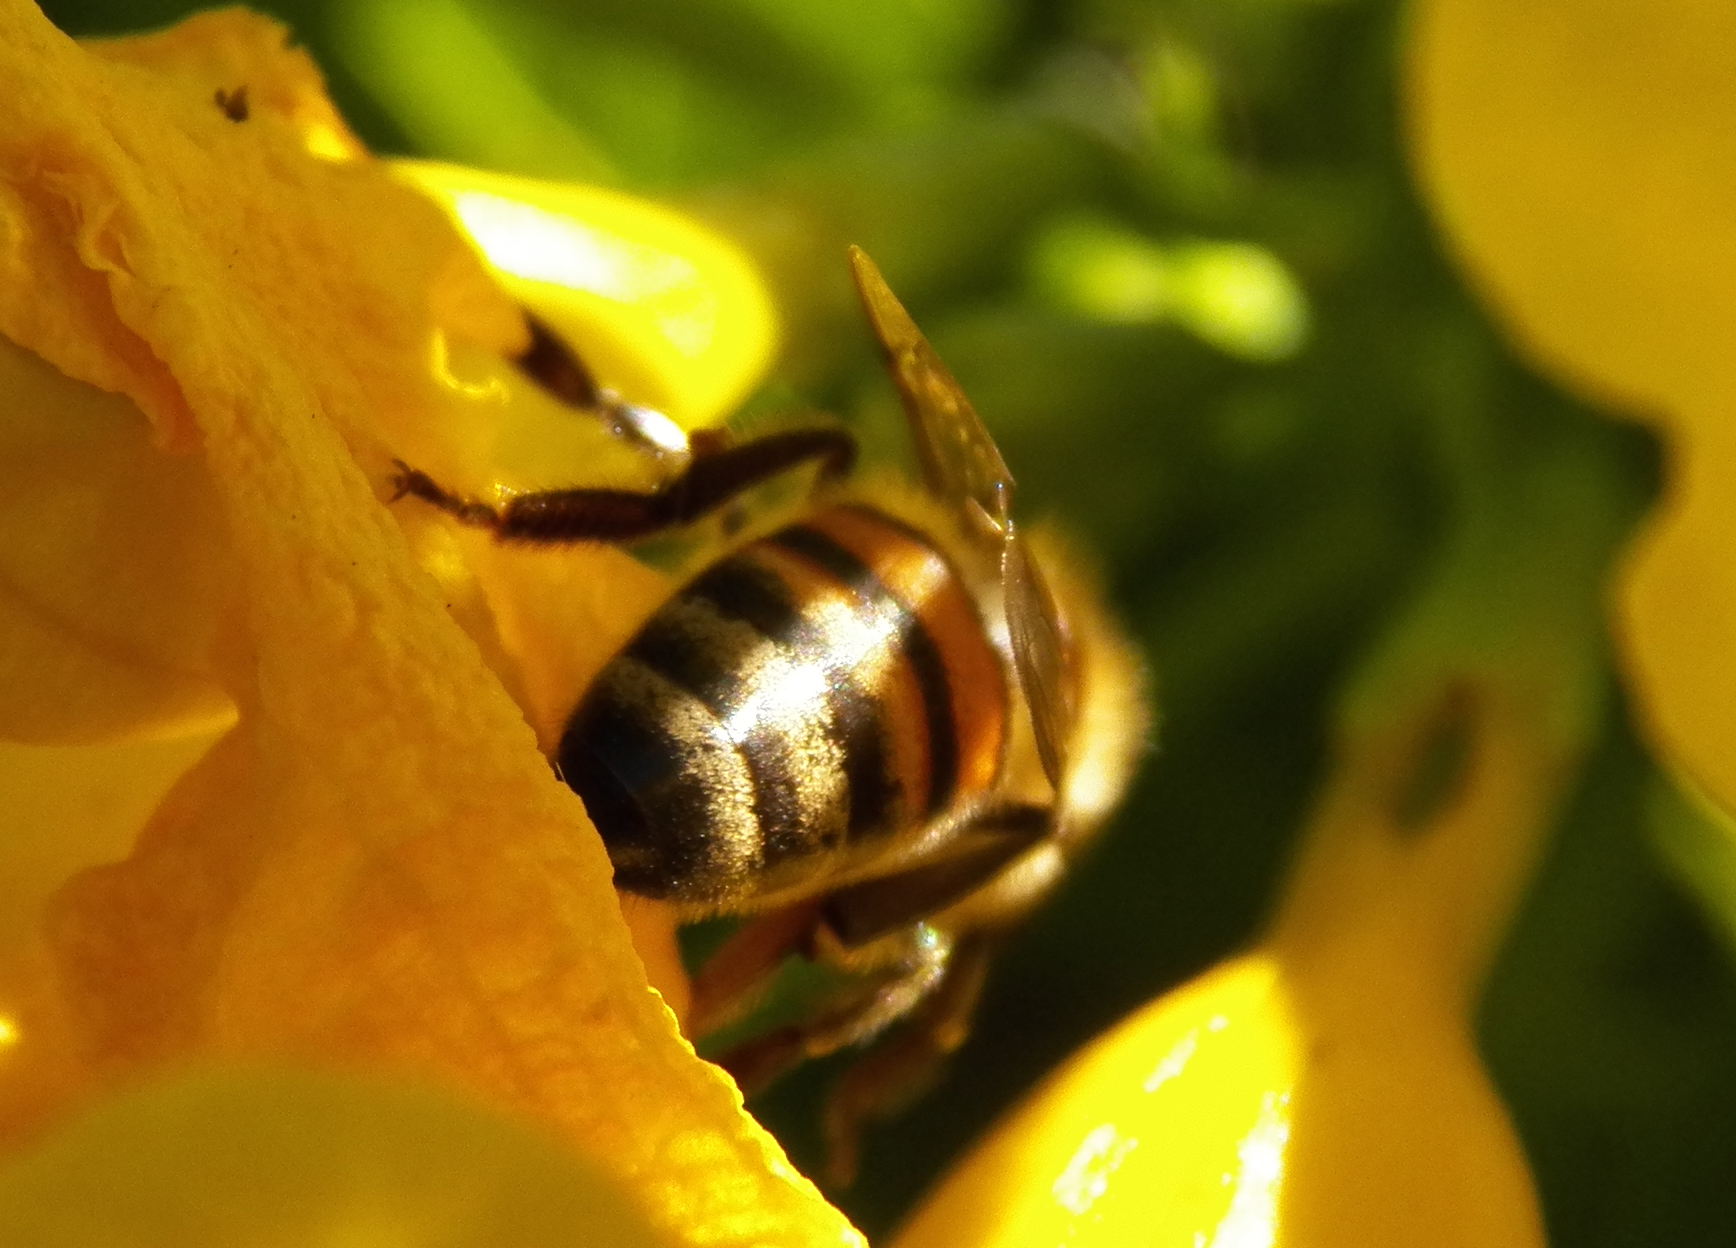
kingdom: Animalia
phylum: Arthropoda
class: Insecta
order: Hymenoptera
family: Apidae
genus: Apis
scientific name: Apis mellifera
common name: Honey bee
